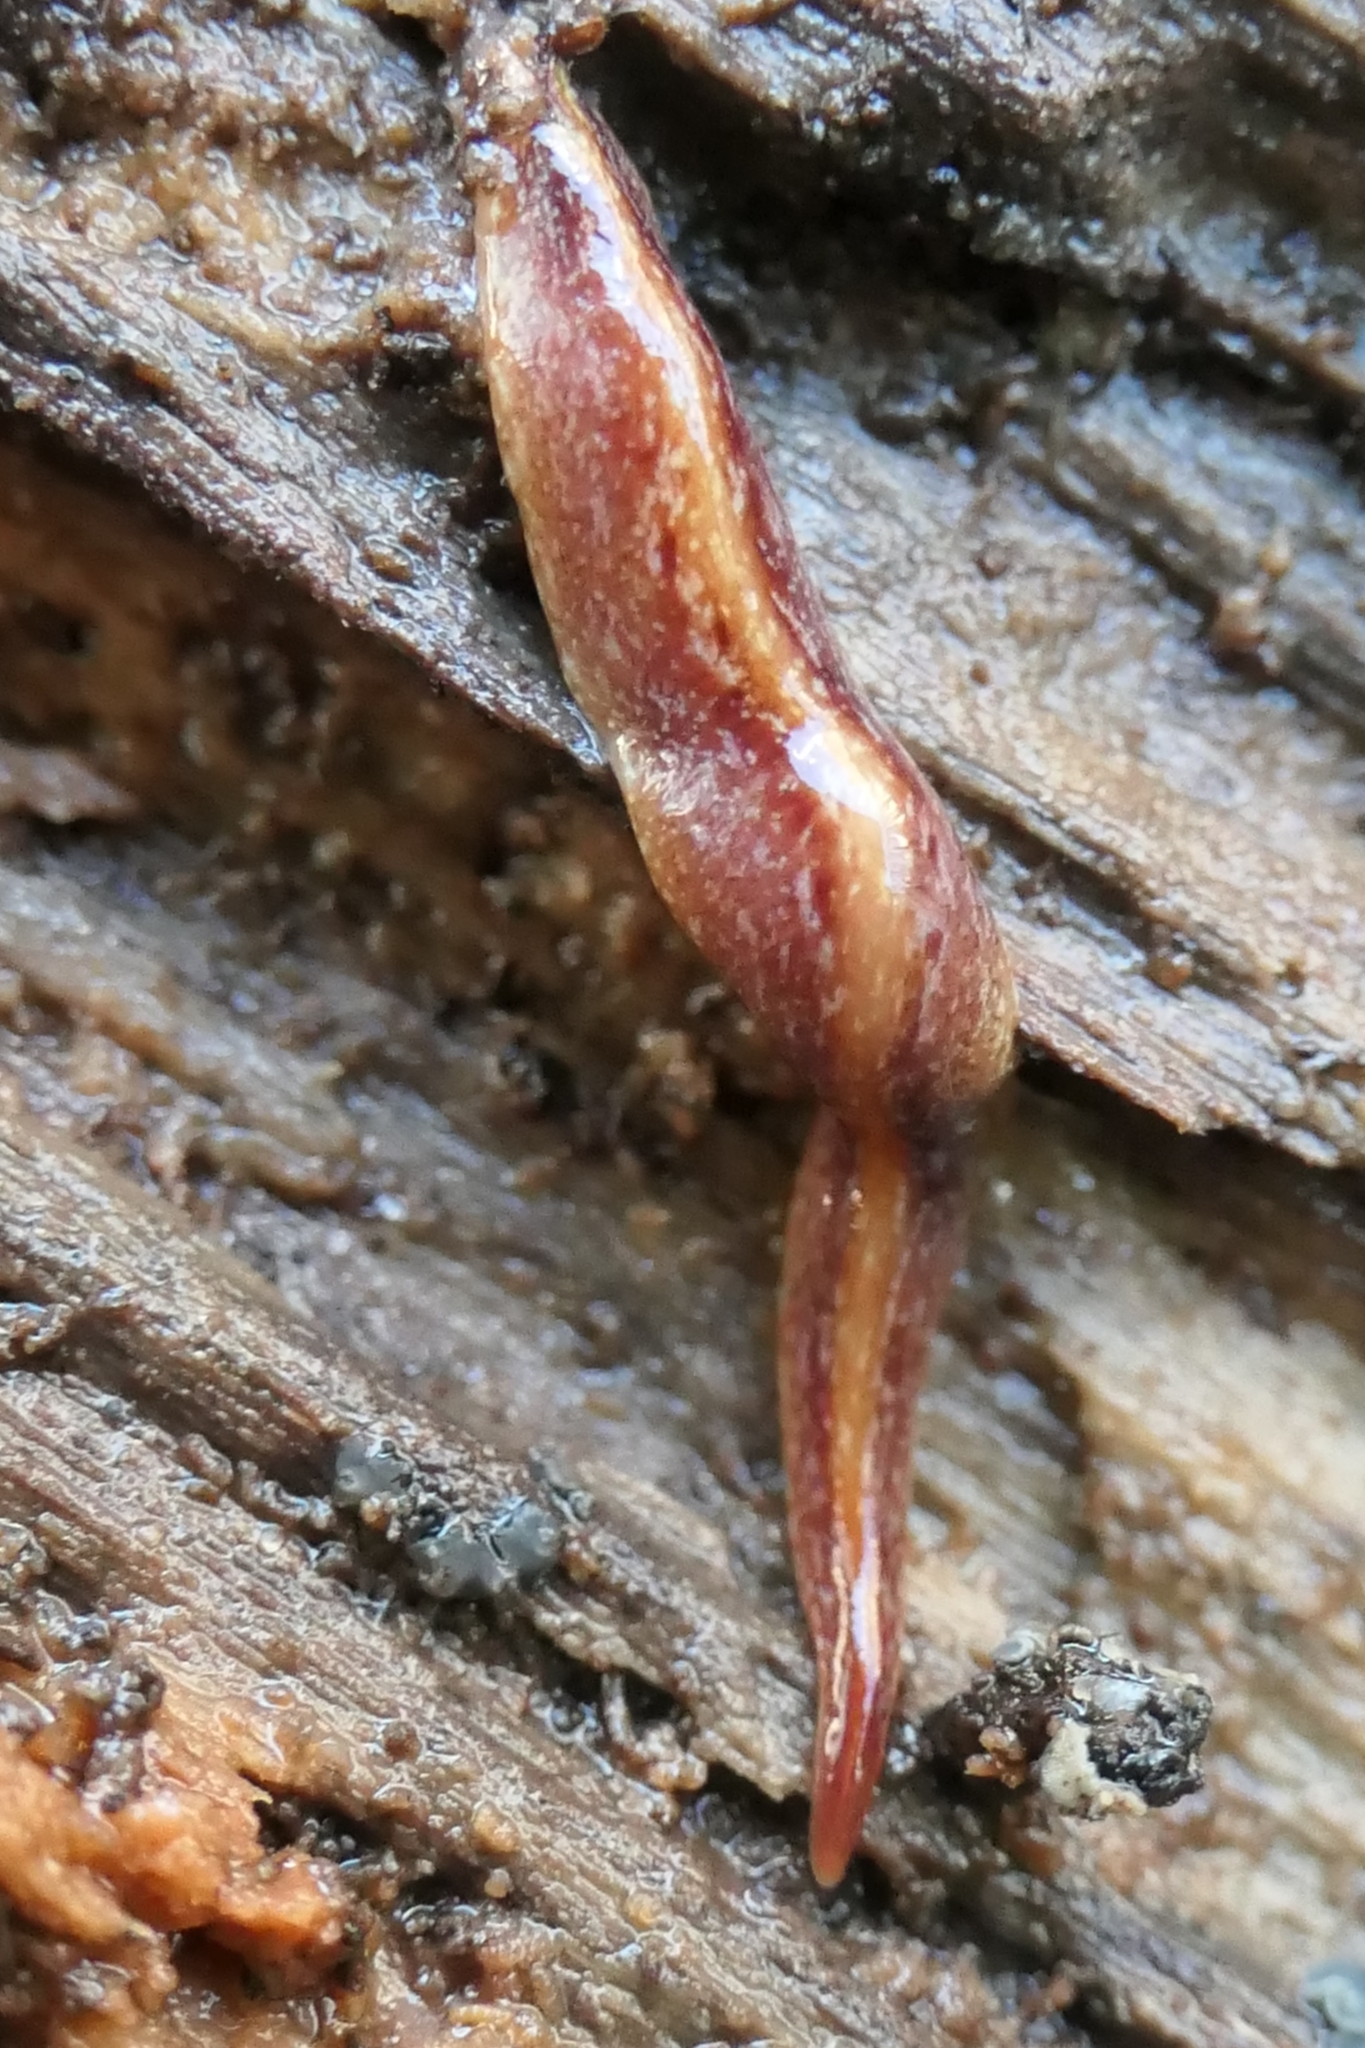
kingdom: Animalia
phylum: Platyhelminthes
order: Tricladida
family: Geoplanidae
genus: Australopacifica
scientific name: Australopacifica spectabilis
